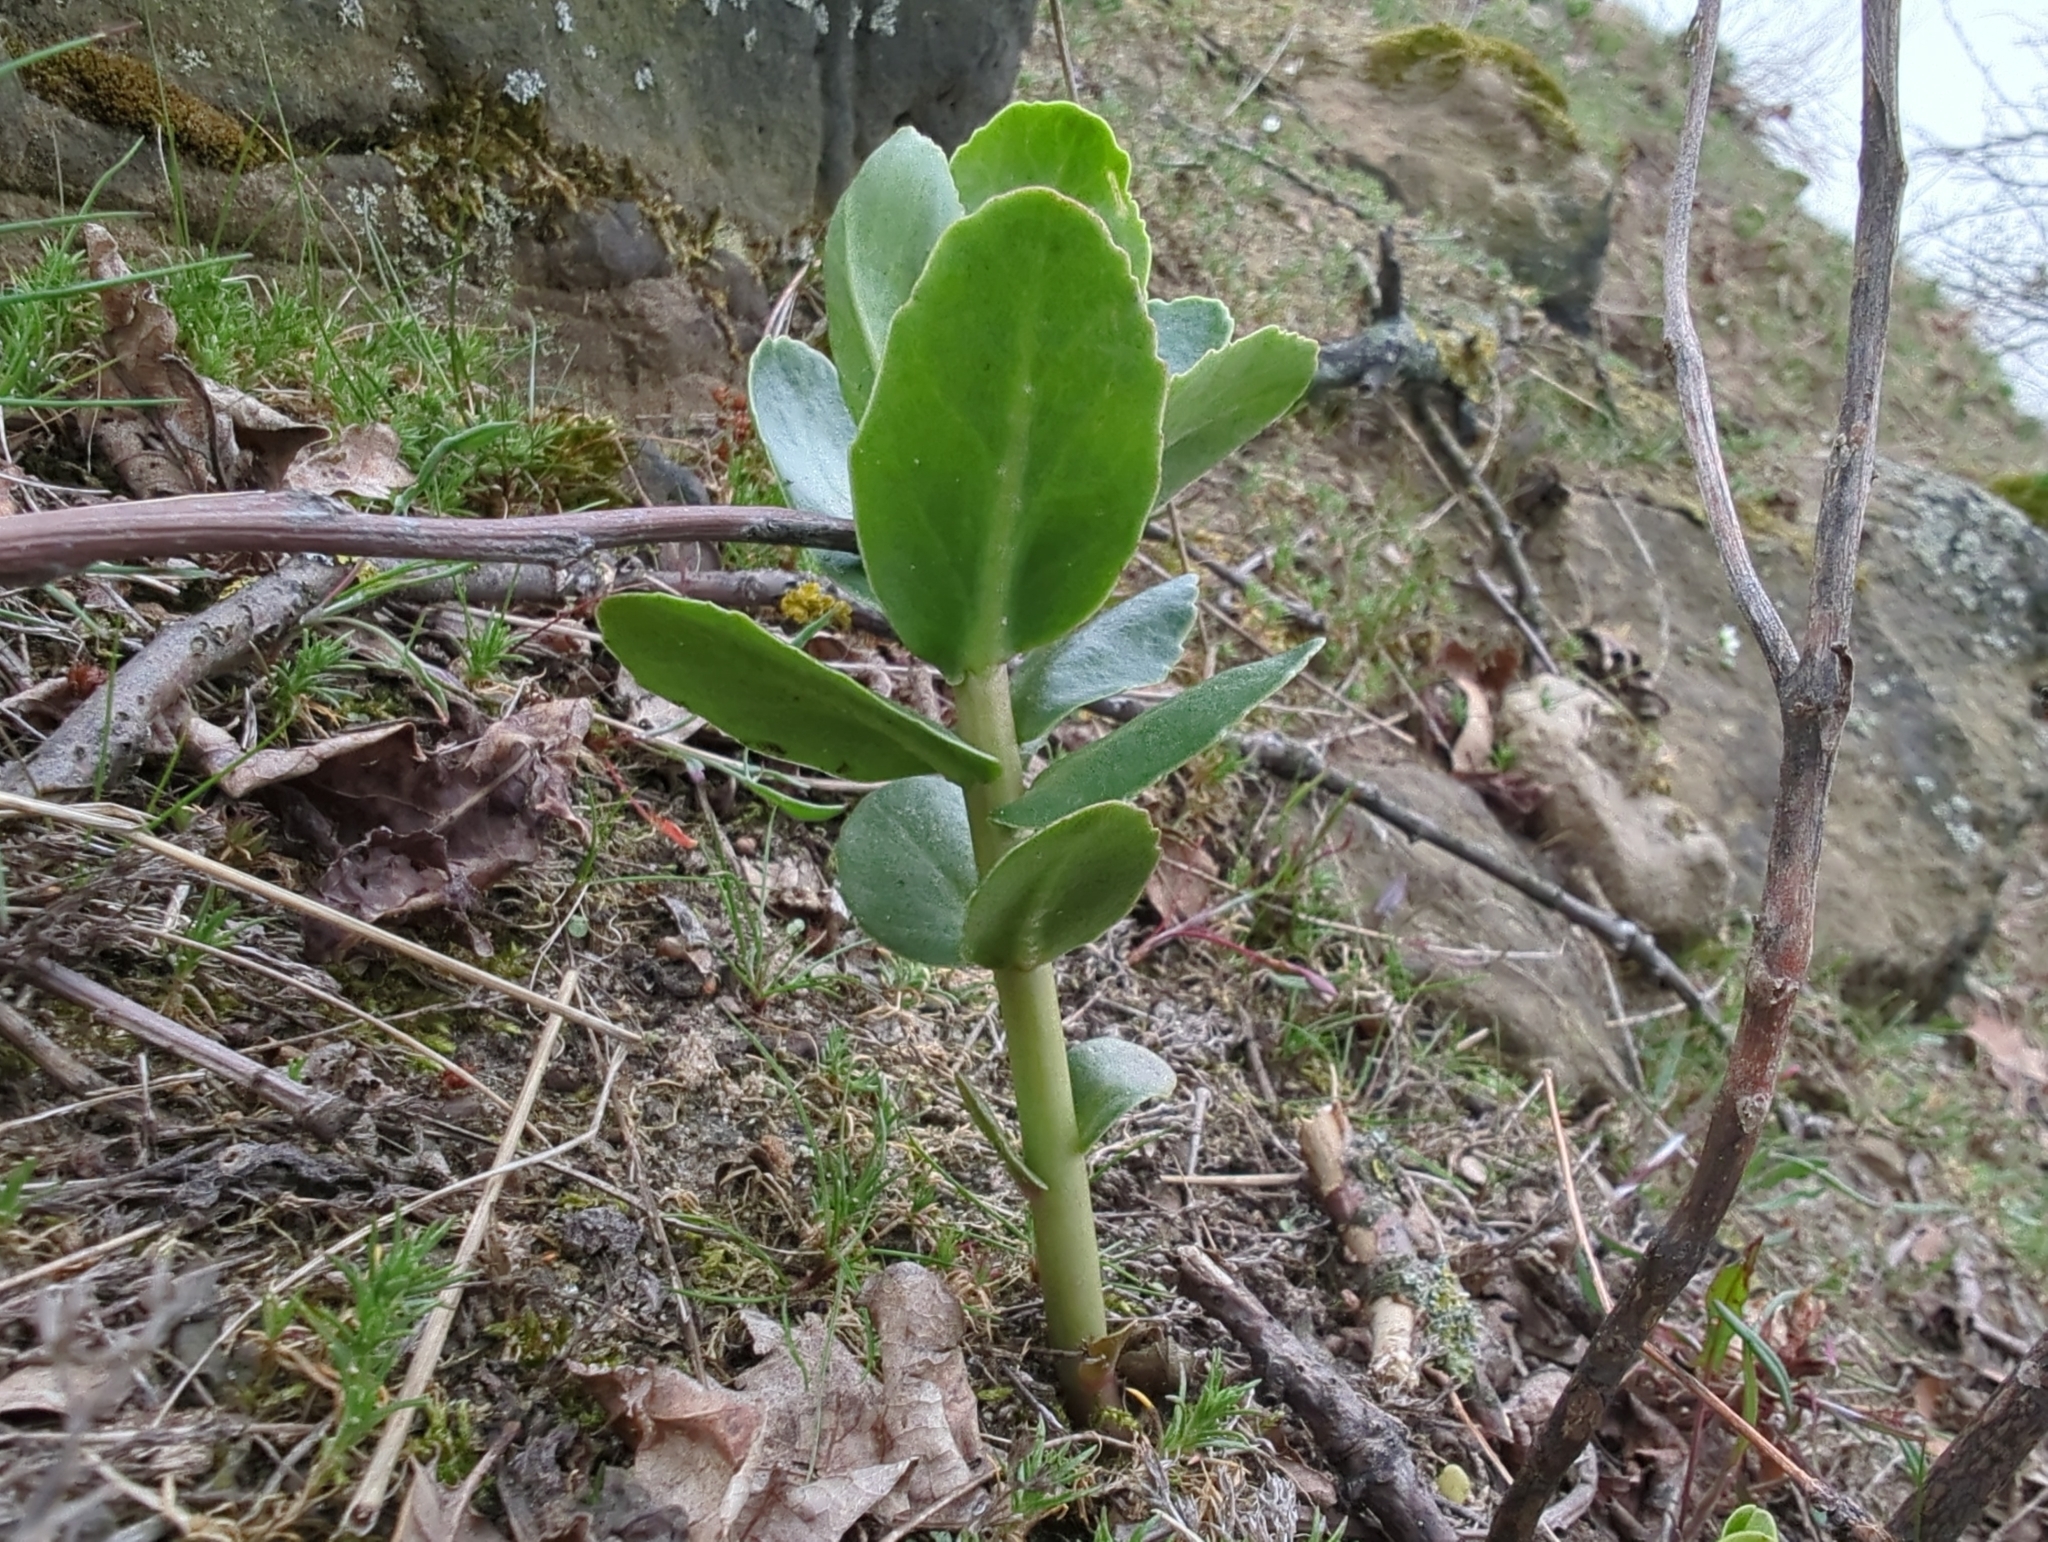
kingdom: Plantae
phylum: Tracheophyta
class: Magnoliopsida
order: Saxifragales
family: Crassulaceae
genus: Hylotelephium
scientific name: Hylotelephium maximum
